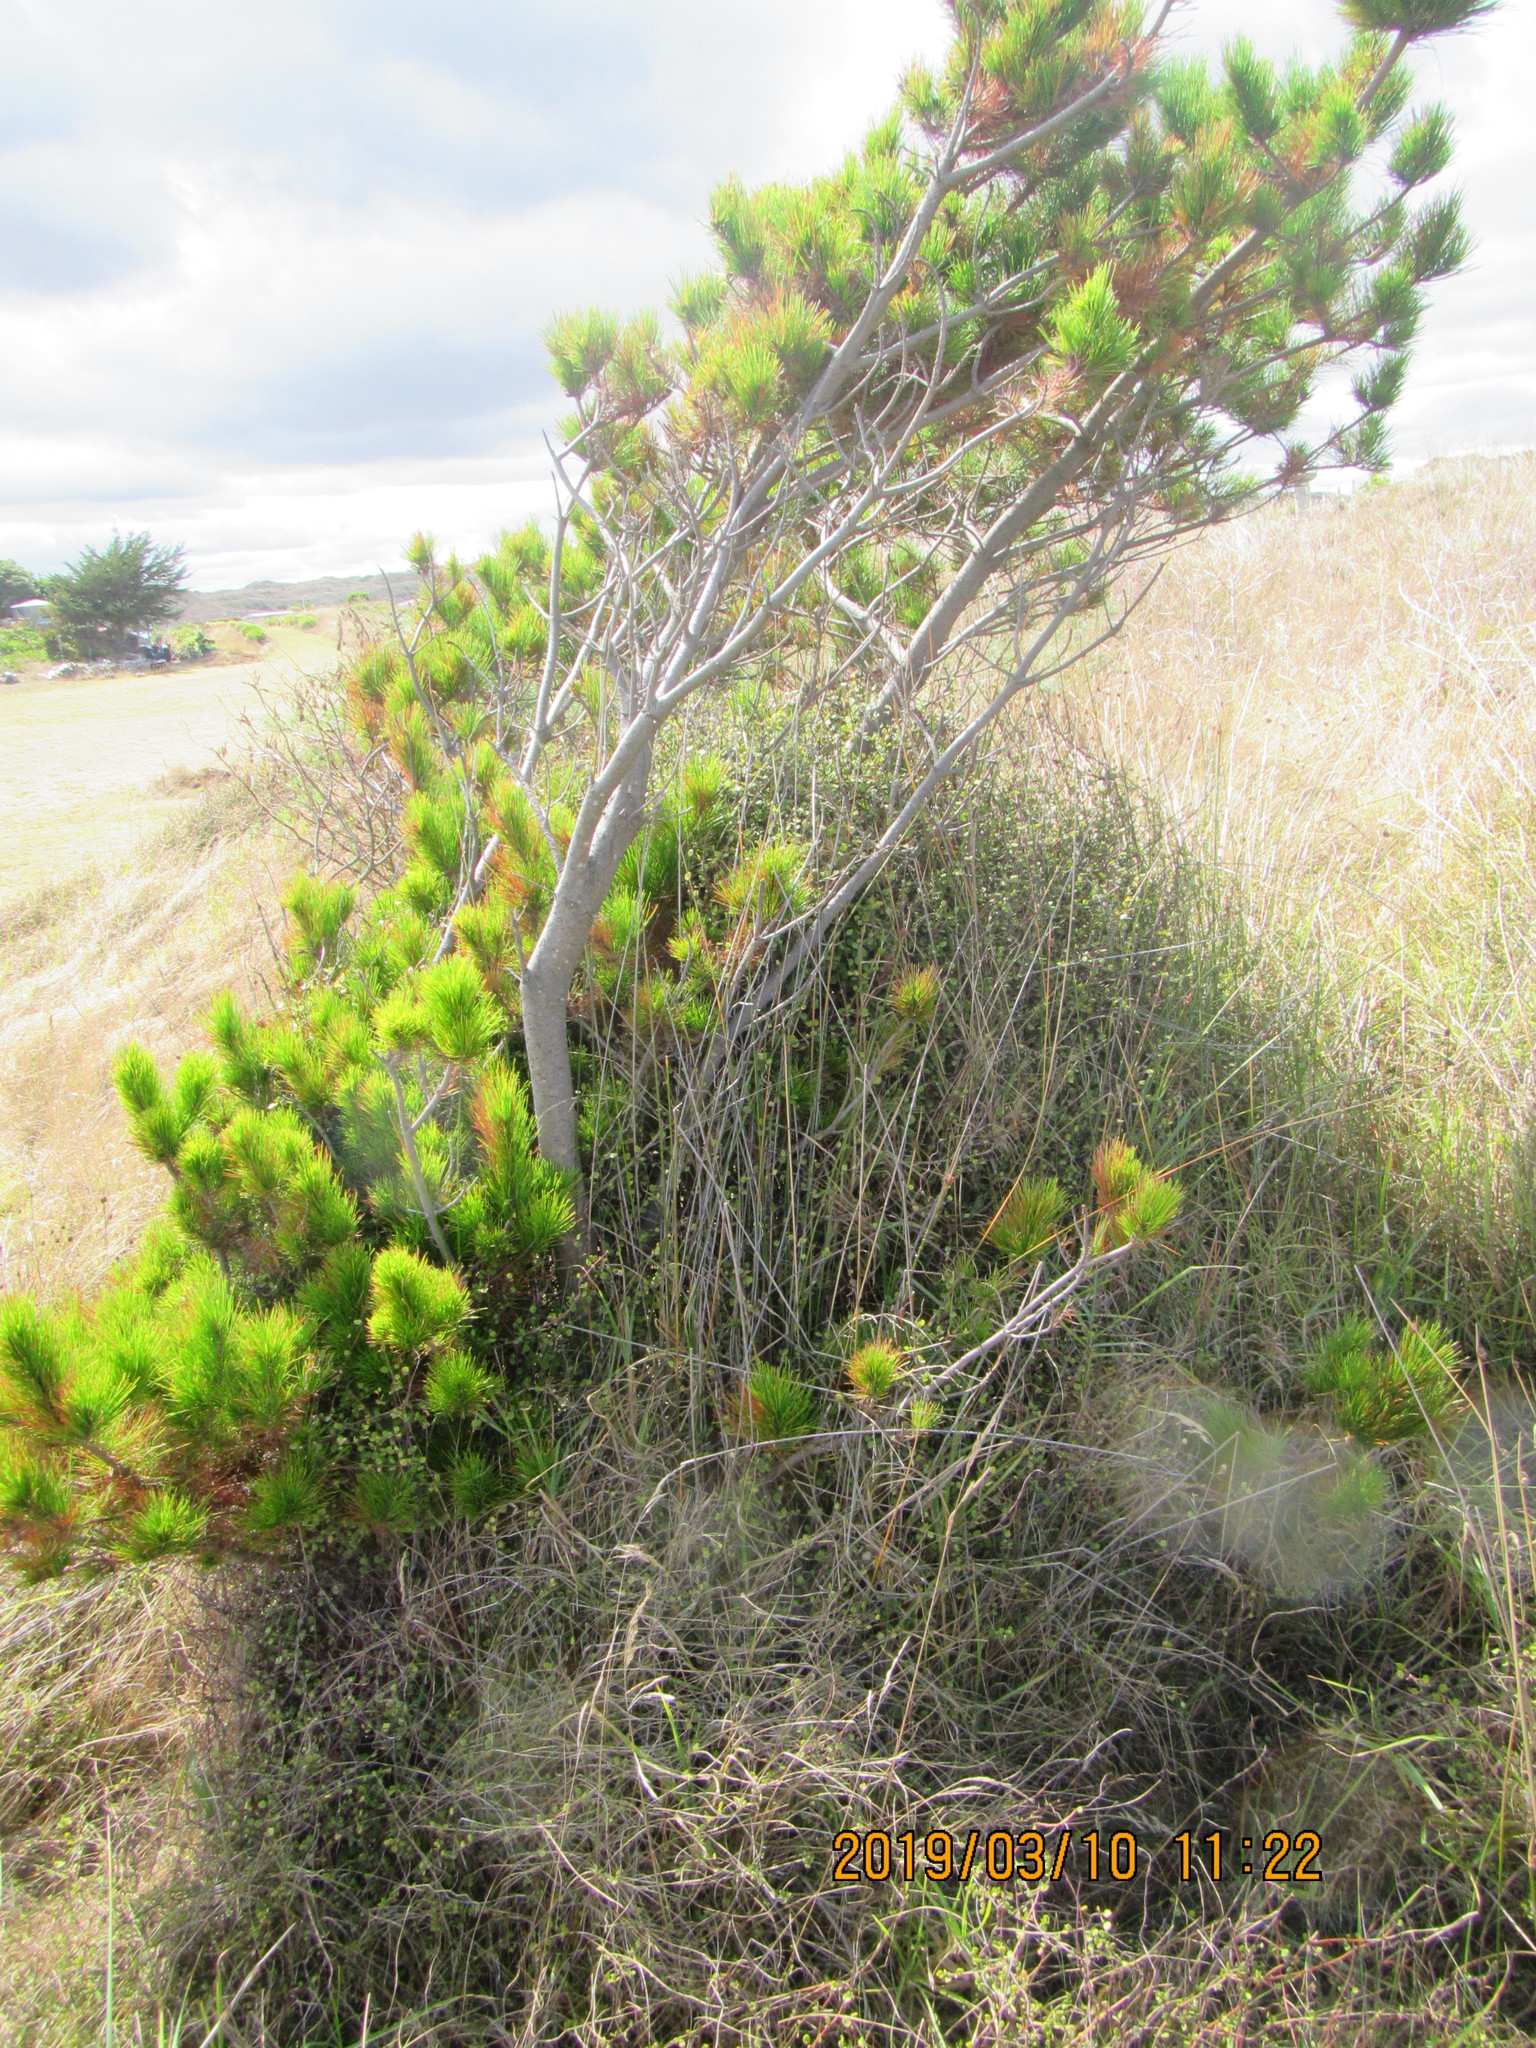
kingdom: Plantae
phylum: Tracheophyta
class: Pinopsida
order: Pinales
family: Pinaceae
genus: Pinus
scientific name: Pinus radiata
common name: Monterey pine
